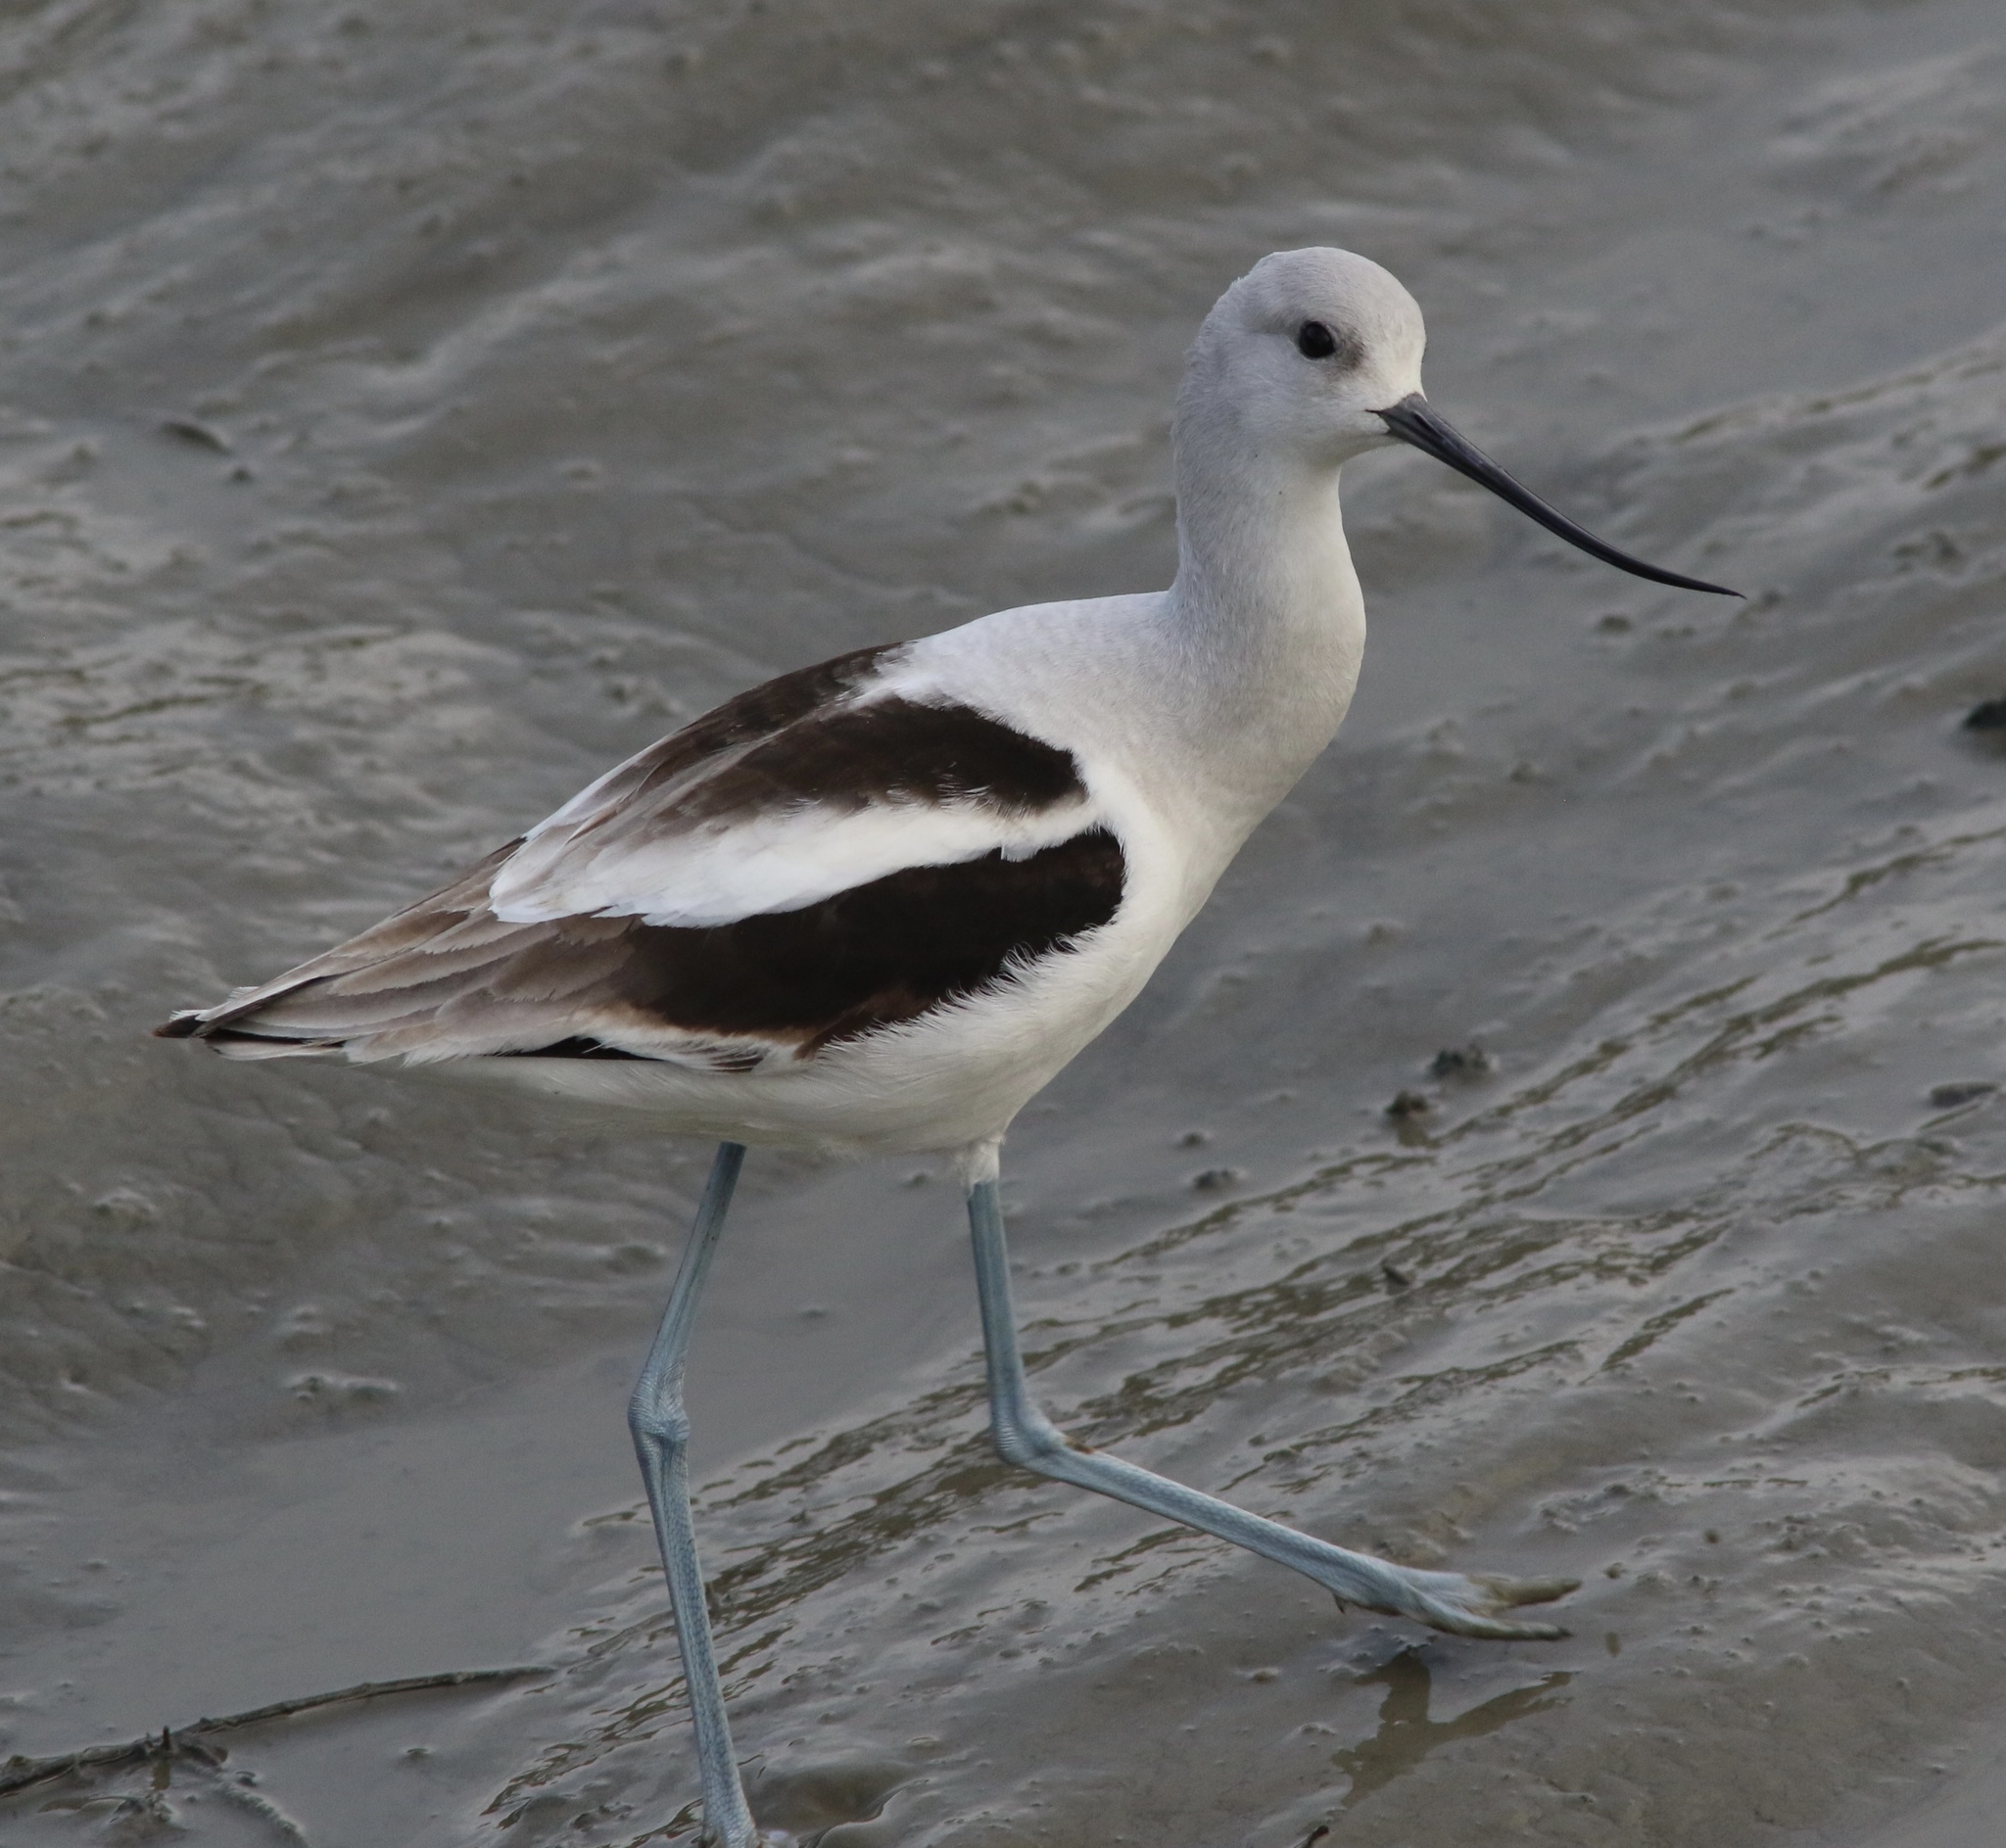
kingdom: Animalia
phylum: Chordata
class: Aves
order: Charadriiformes
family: Recurvirostridae
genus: Recurvirostra
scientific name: Recurvirostra americana
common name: American avocet
